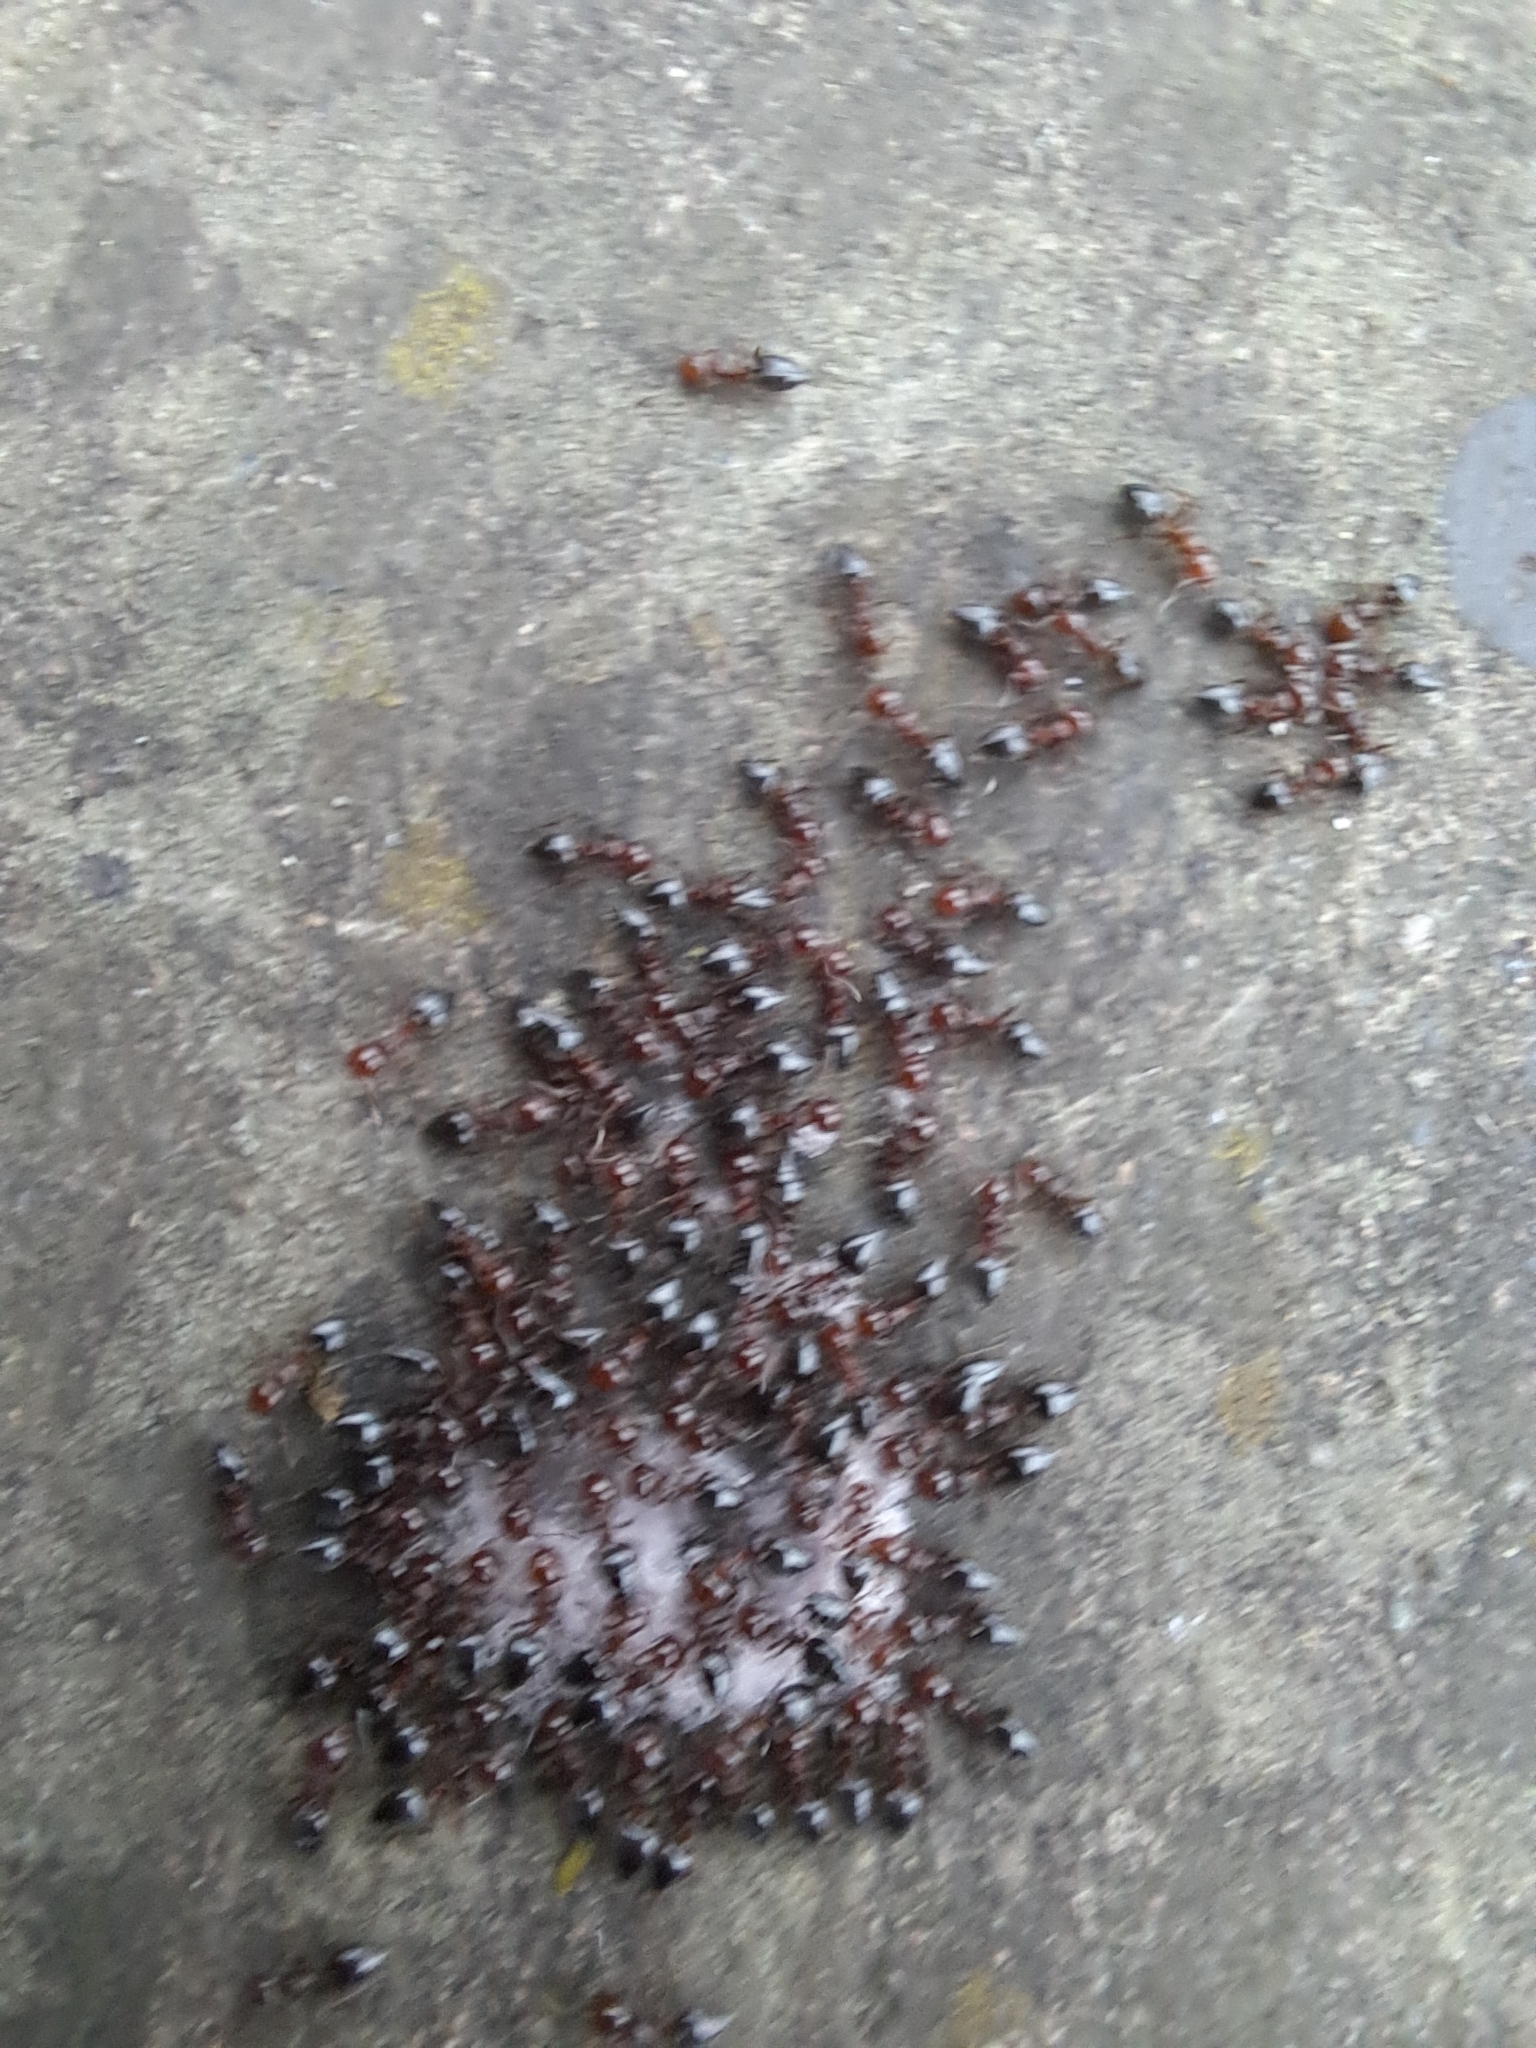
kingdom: Animalia
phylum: Arthropoda
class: Insecta
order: Hymenoptera
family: Formicidae
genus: Crematogaster
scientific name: Crematogaster schmidti
